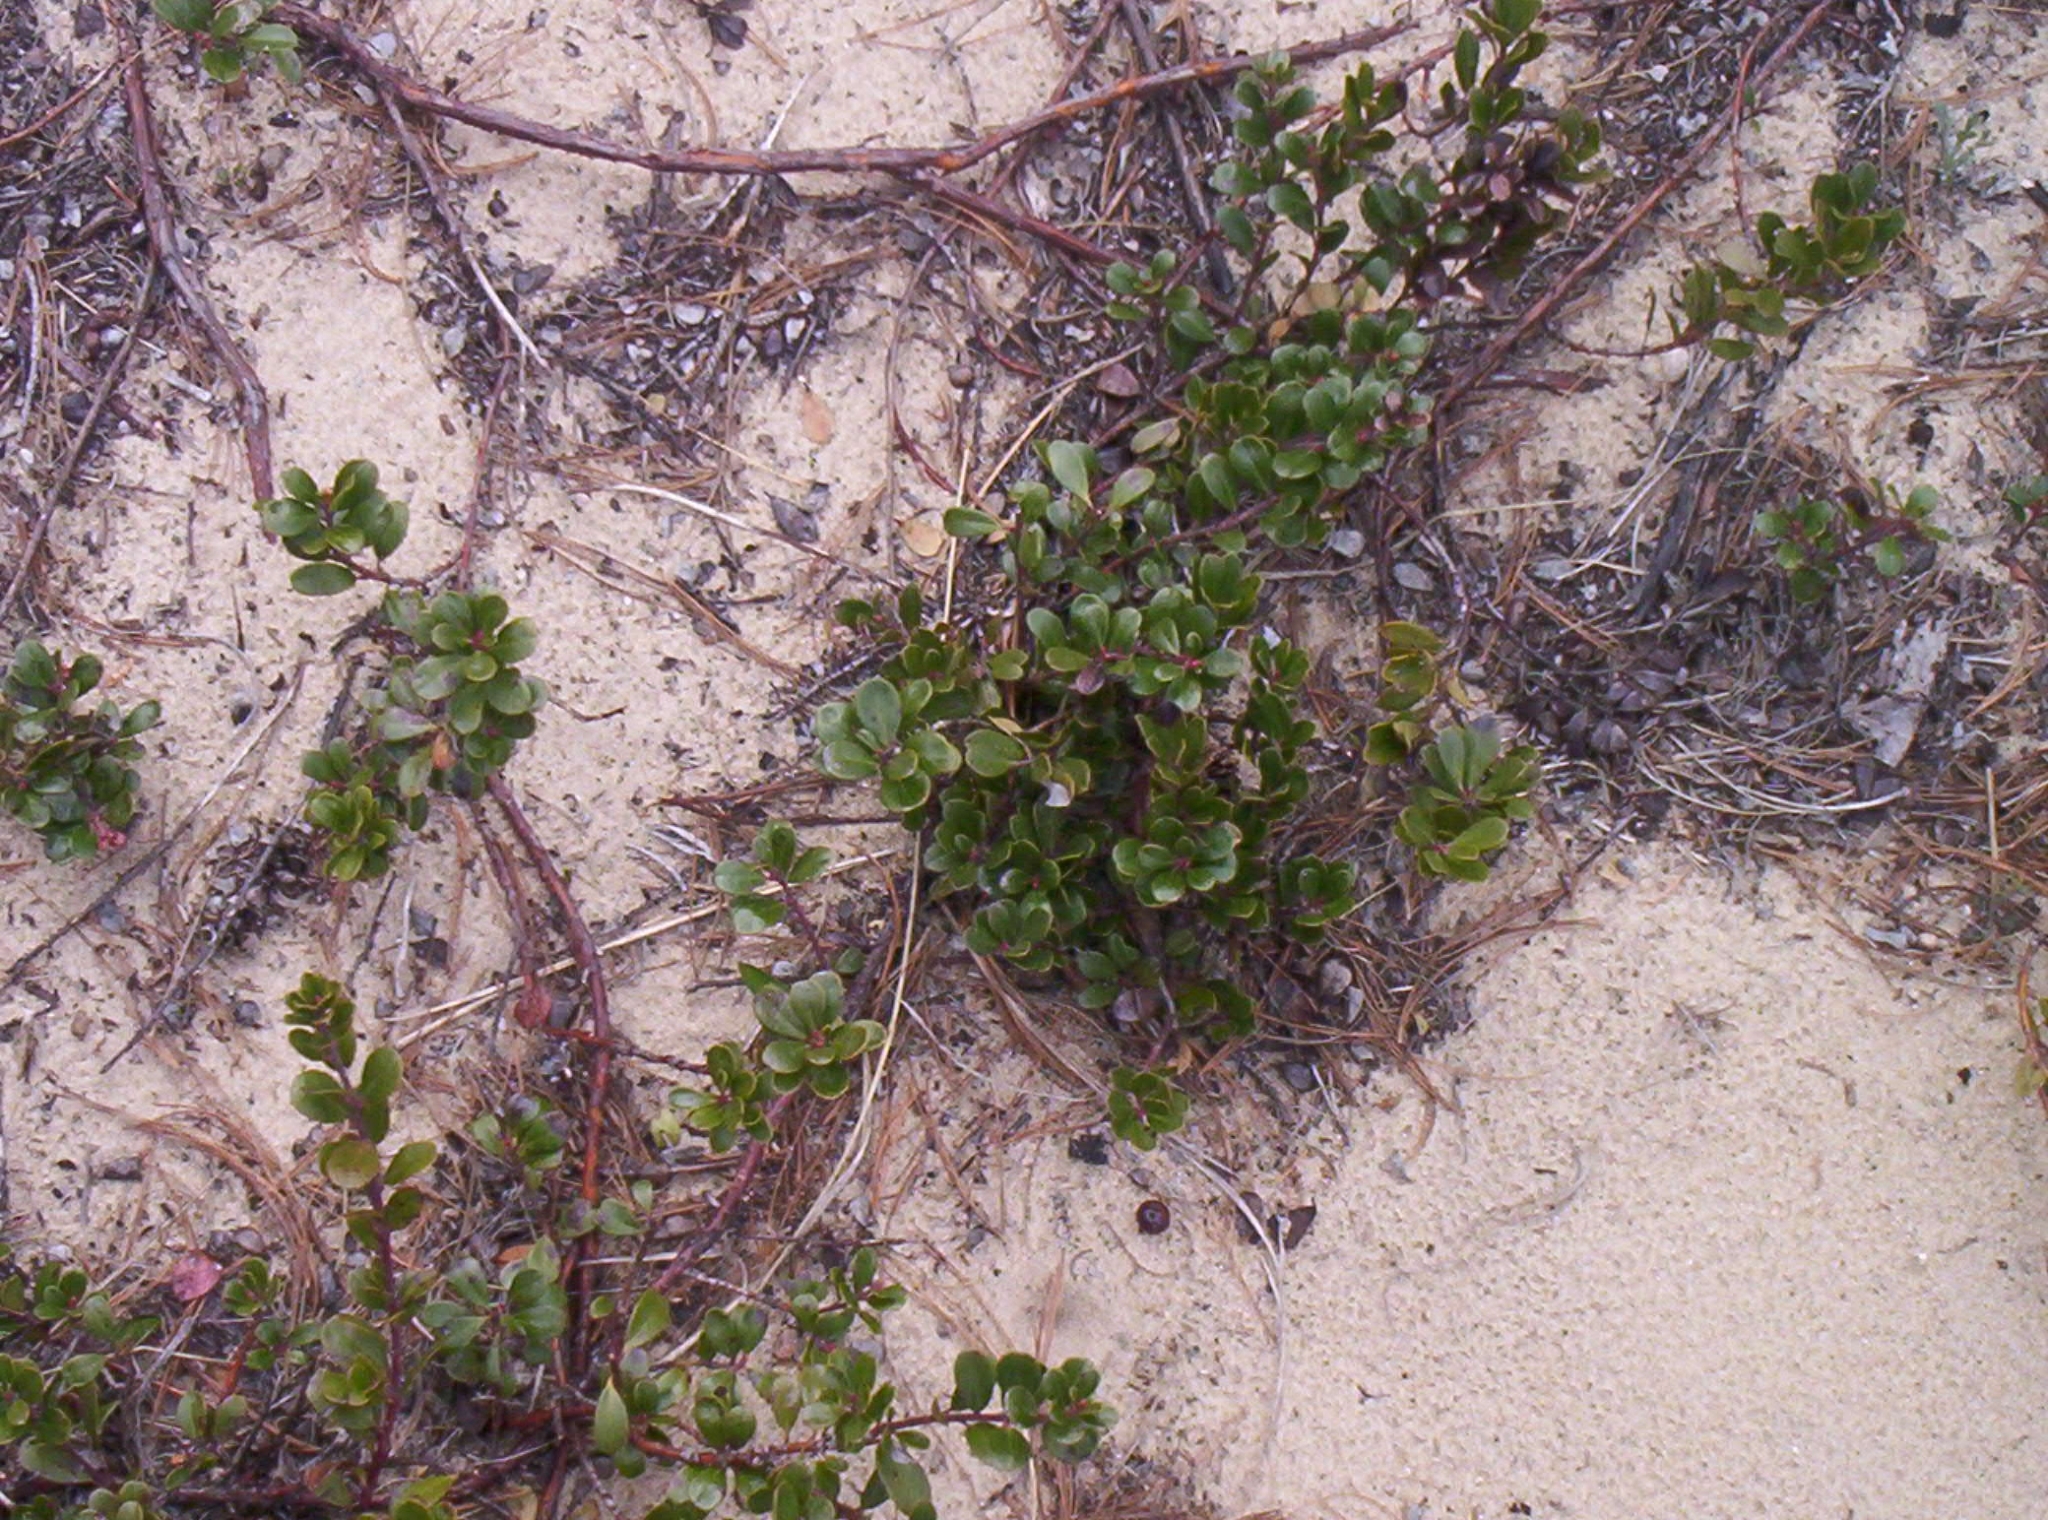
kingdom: Plantae
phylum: Tracheophyta
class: Magnoliopsida
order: Ericales
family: Ericaceae
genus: Arctostaphylos
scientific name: Arctostaphylos uva-ursi
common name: Bearberry
